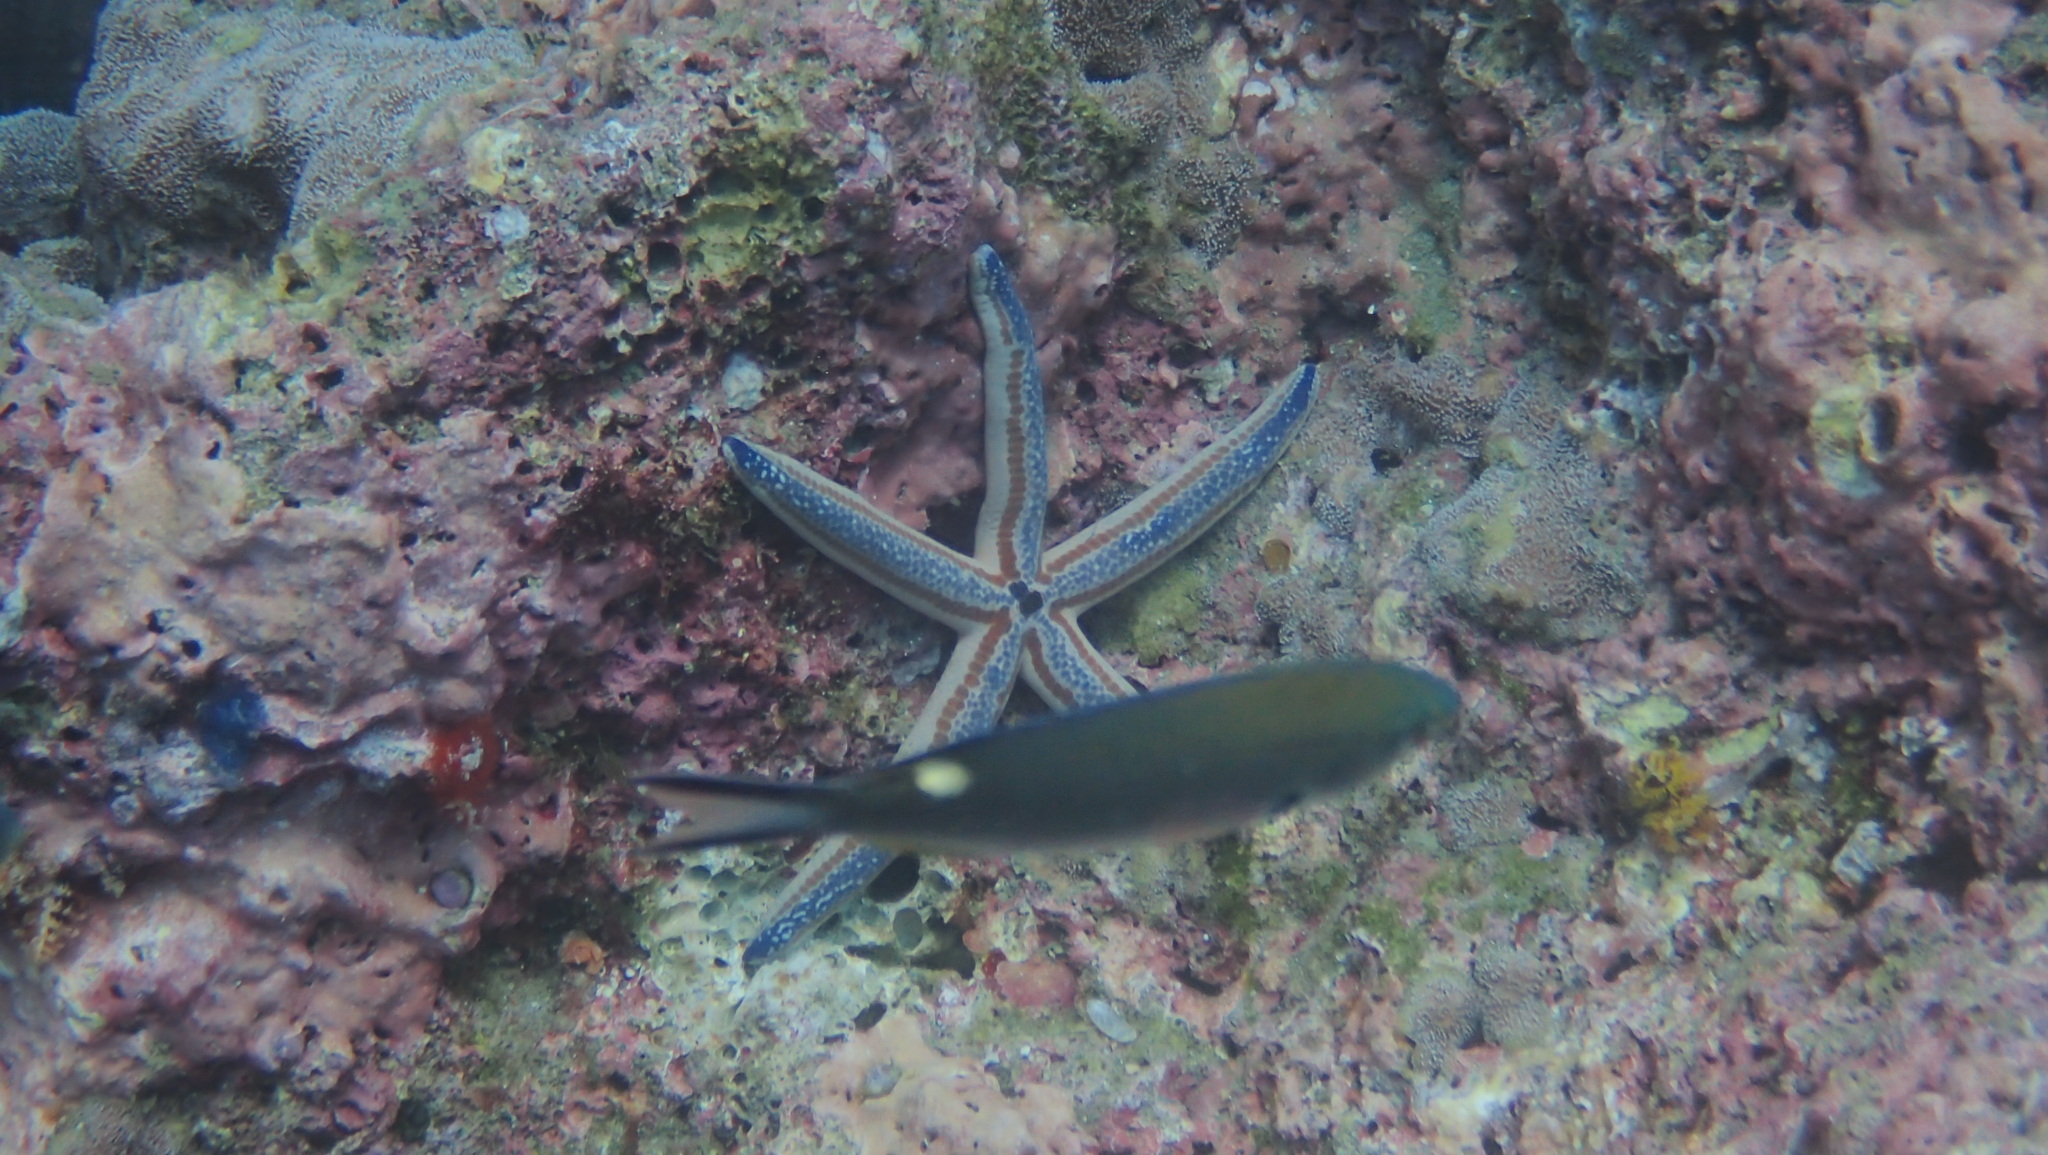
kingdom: Animalia
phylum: Echinodermata
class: Asteroidea
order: Valvatida
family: Ophidiasteridae
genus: Phataria
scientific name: Phataria unifascialis
